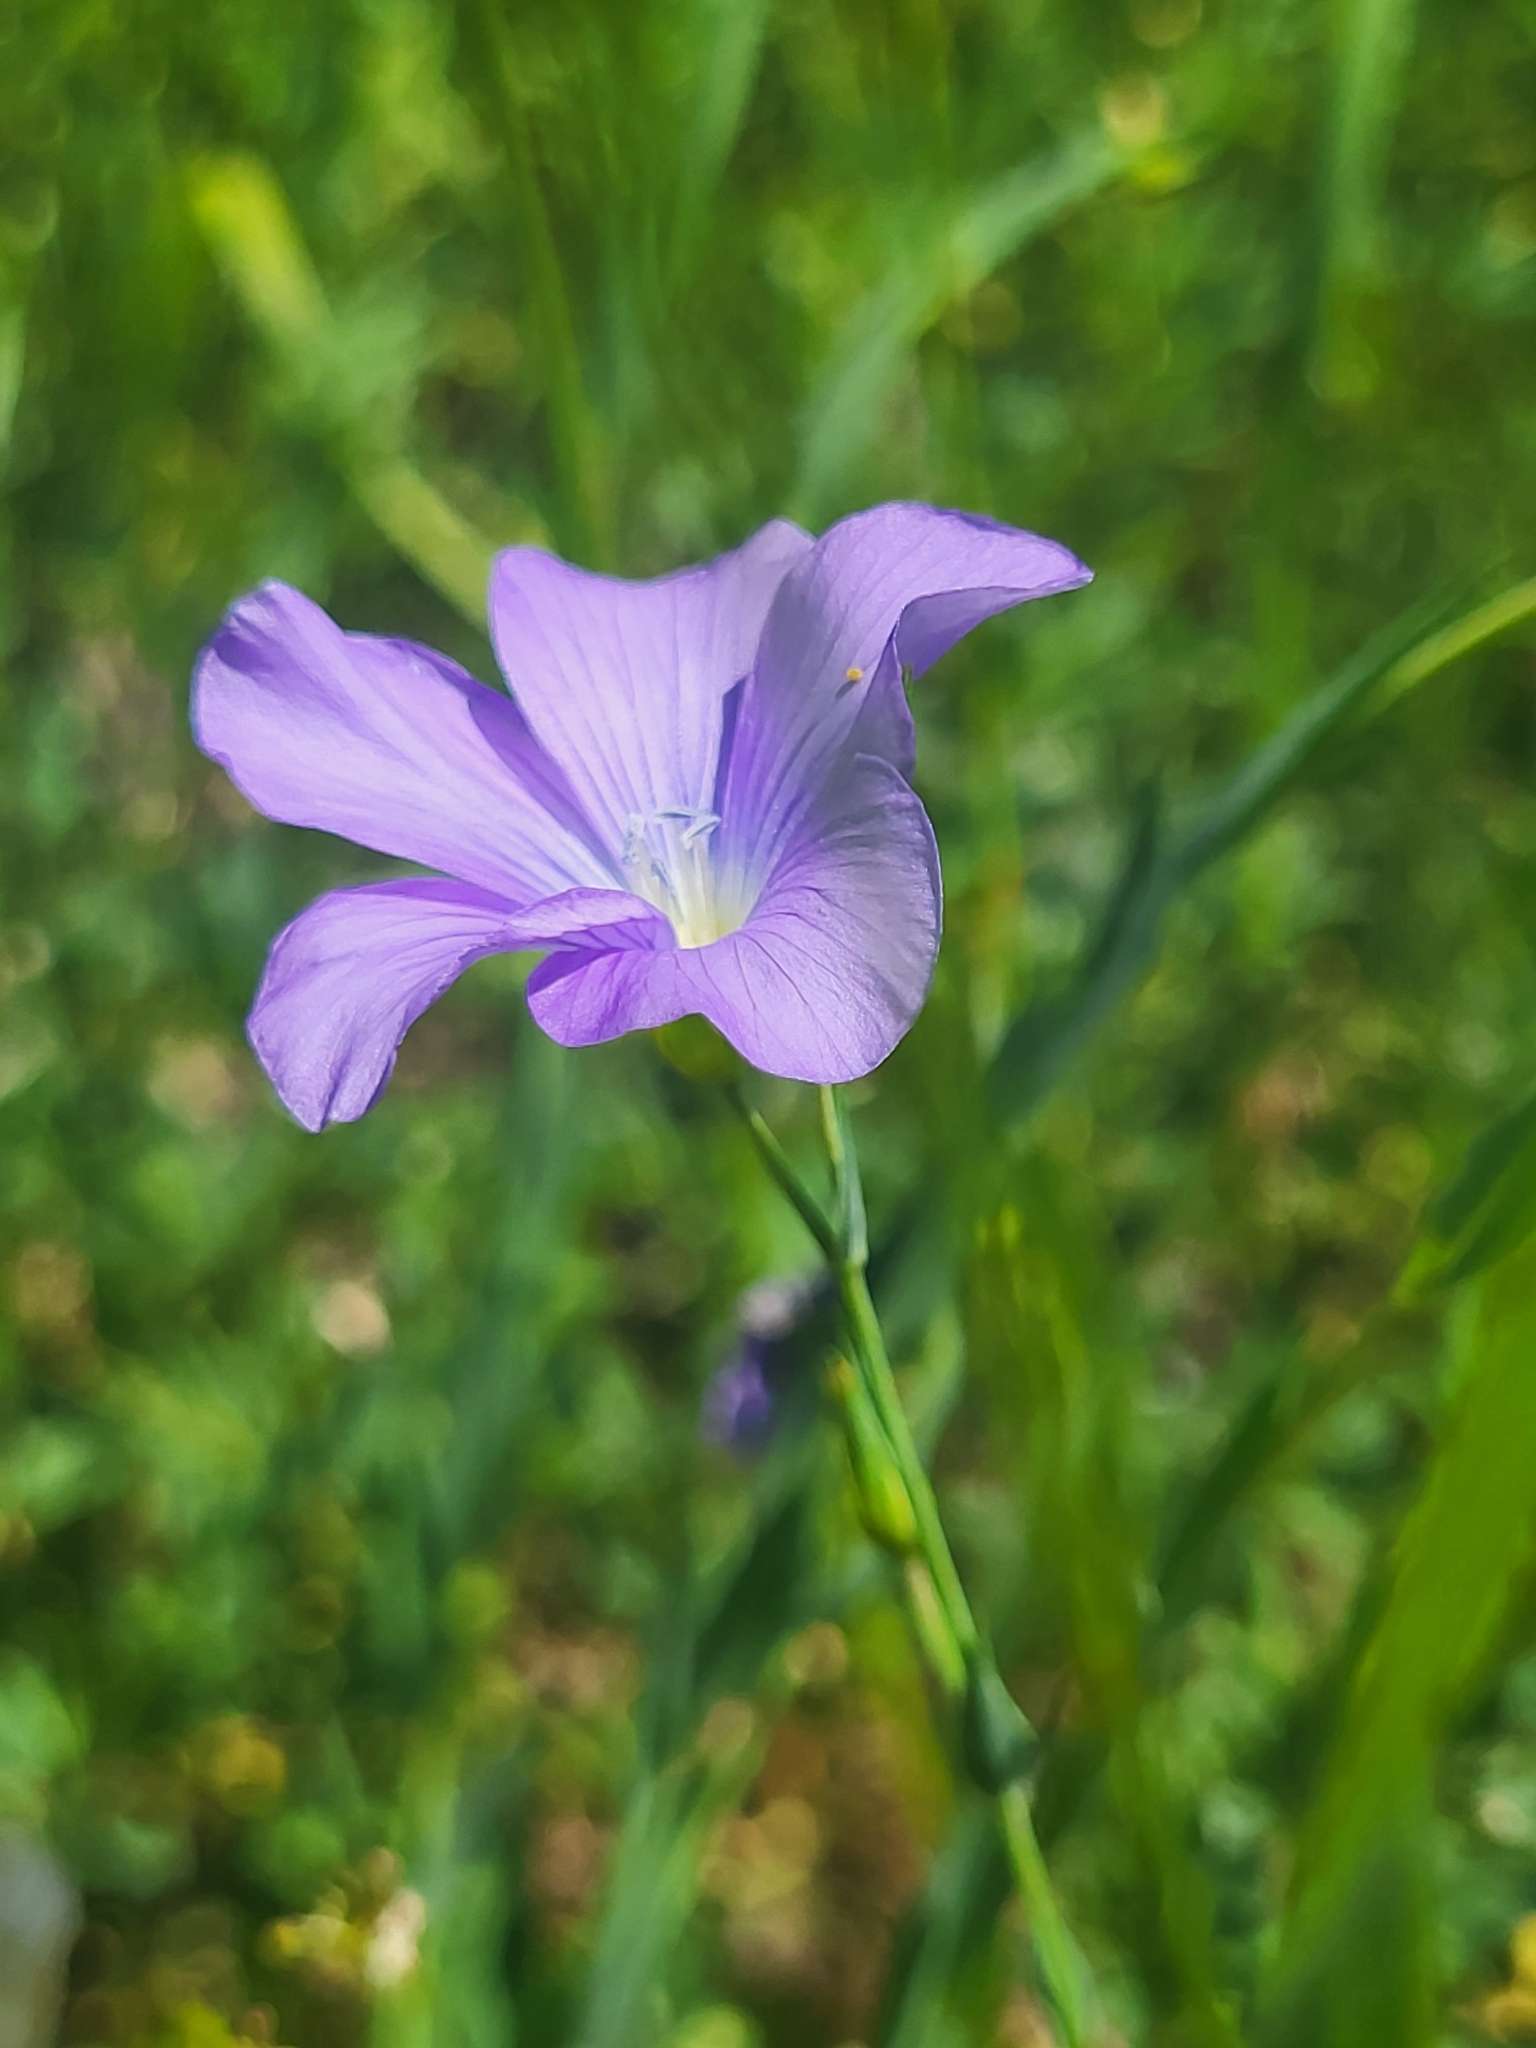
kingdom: Plantae
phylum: Tracheophyta
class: Magnoliopsida
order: Malpighiales
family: Linaceae
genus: Linum
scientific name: Linum nervosum
